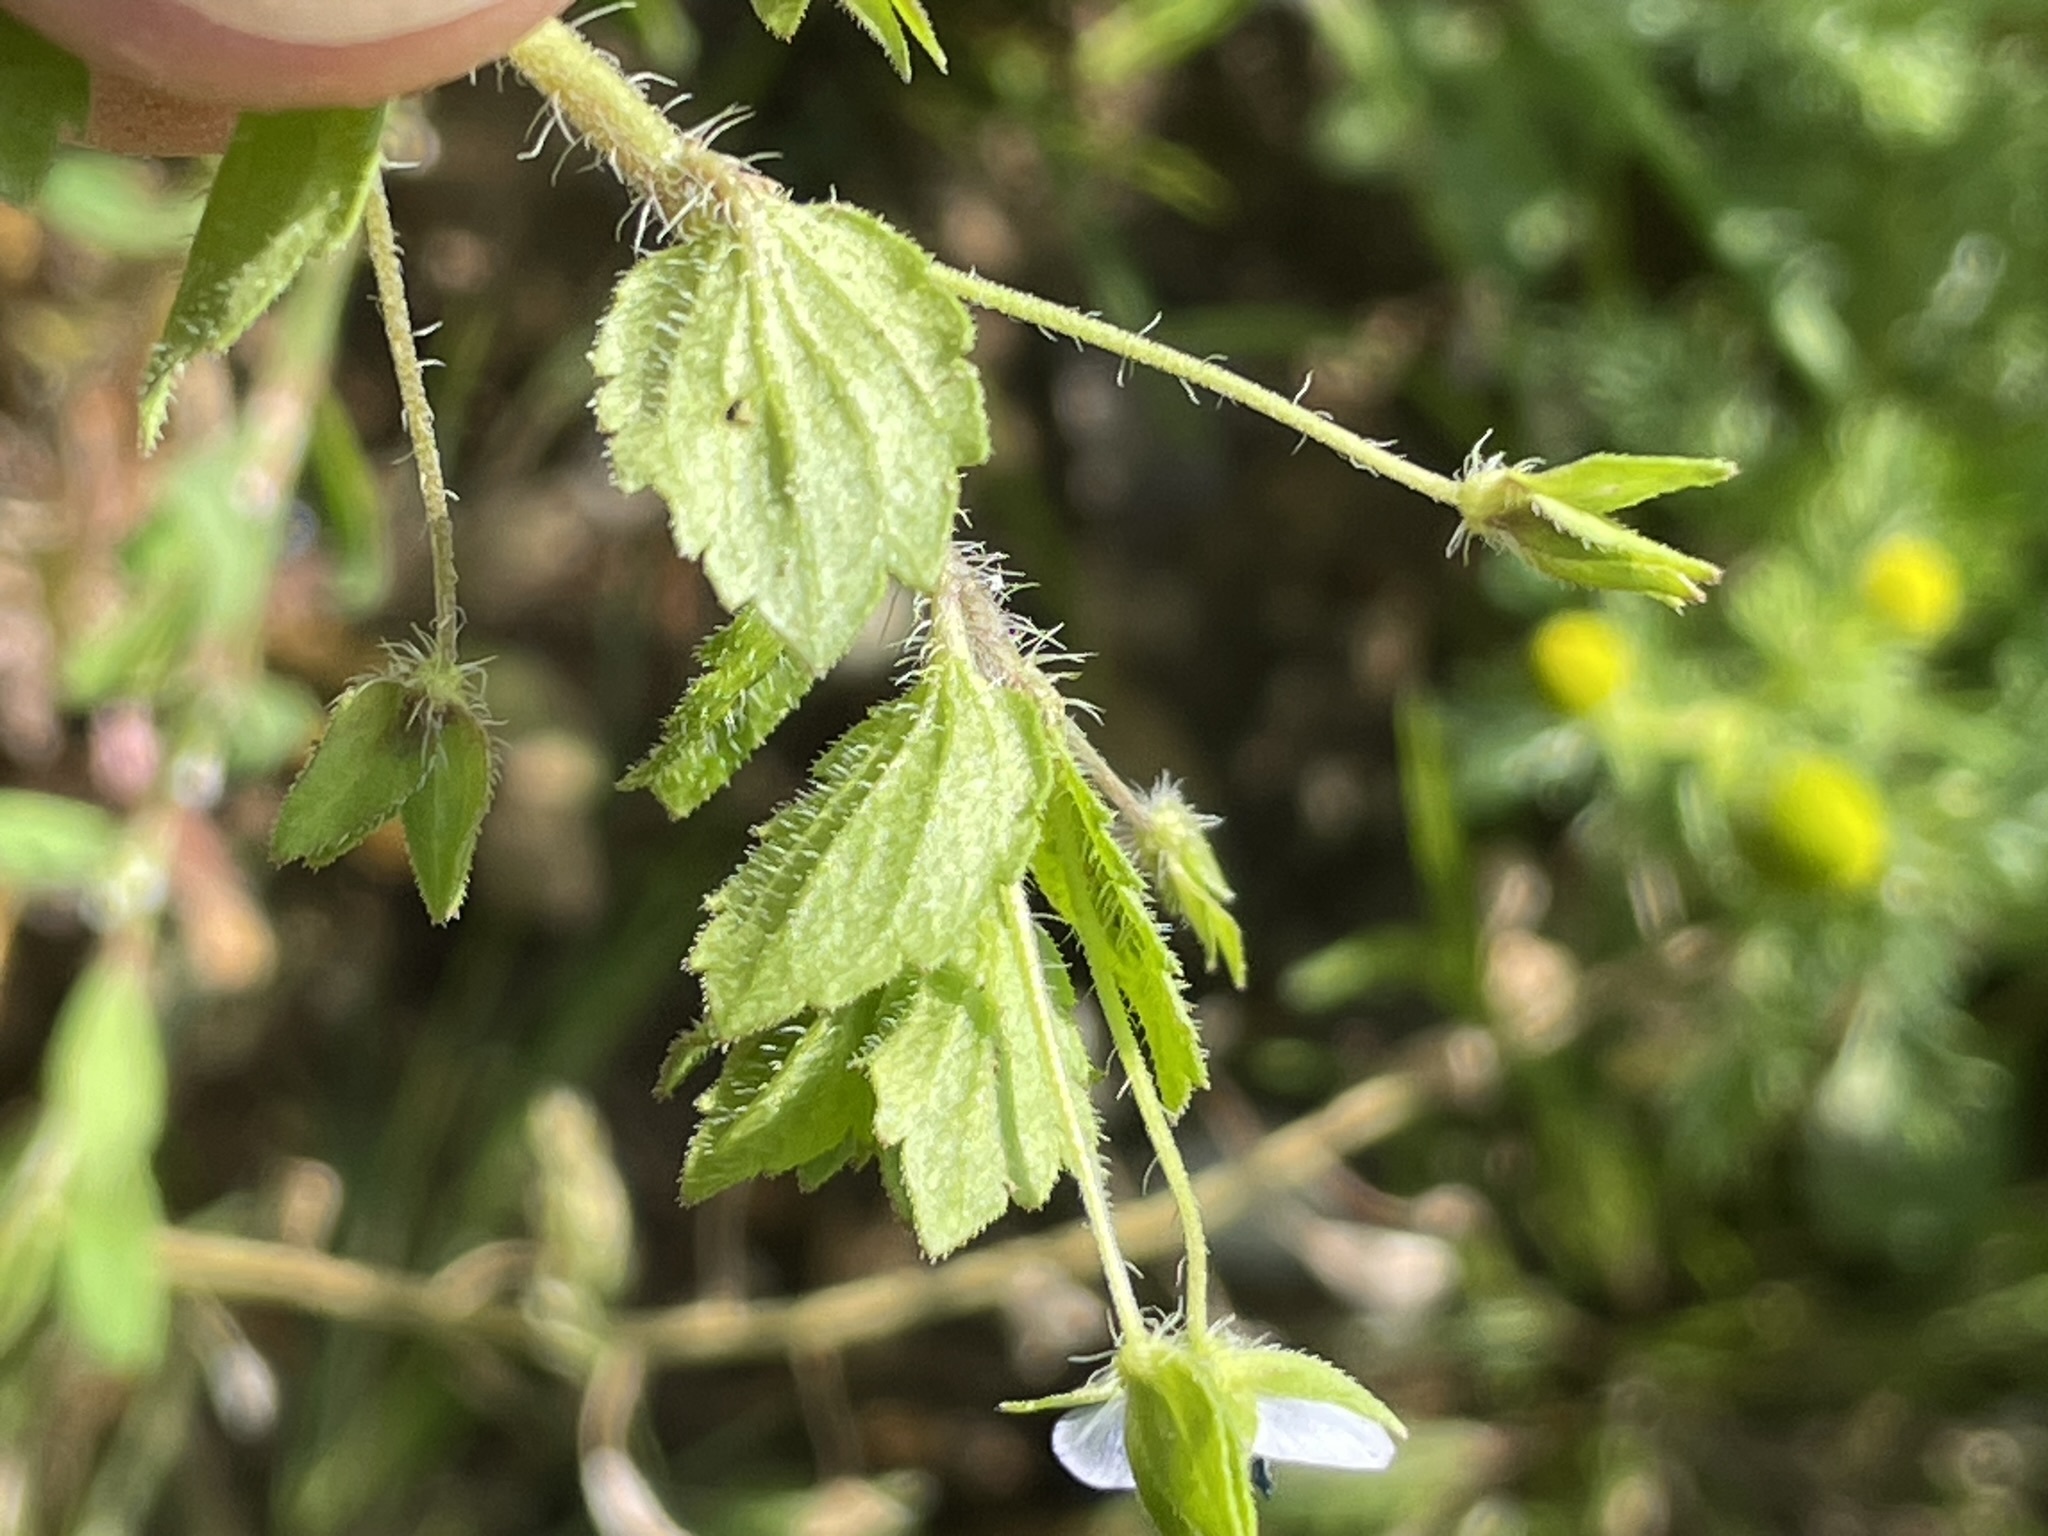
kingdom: Plantae
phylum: Tracheophyta
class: Magnoliopsida
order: Lamiales
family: Plantaginaceae
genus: Veronica
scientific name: Veronica persica
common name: Common field-speedwell
